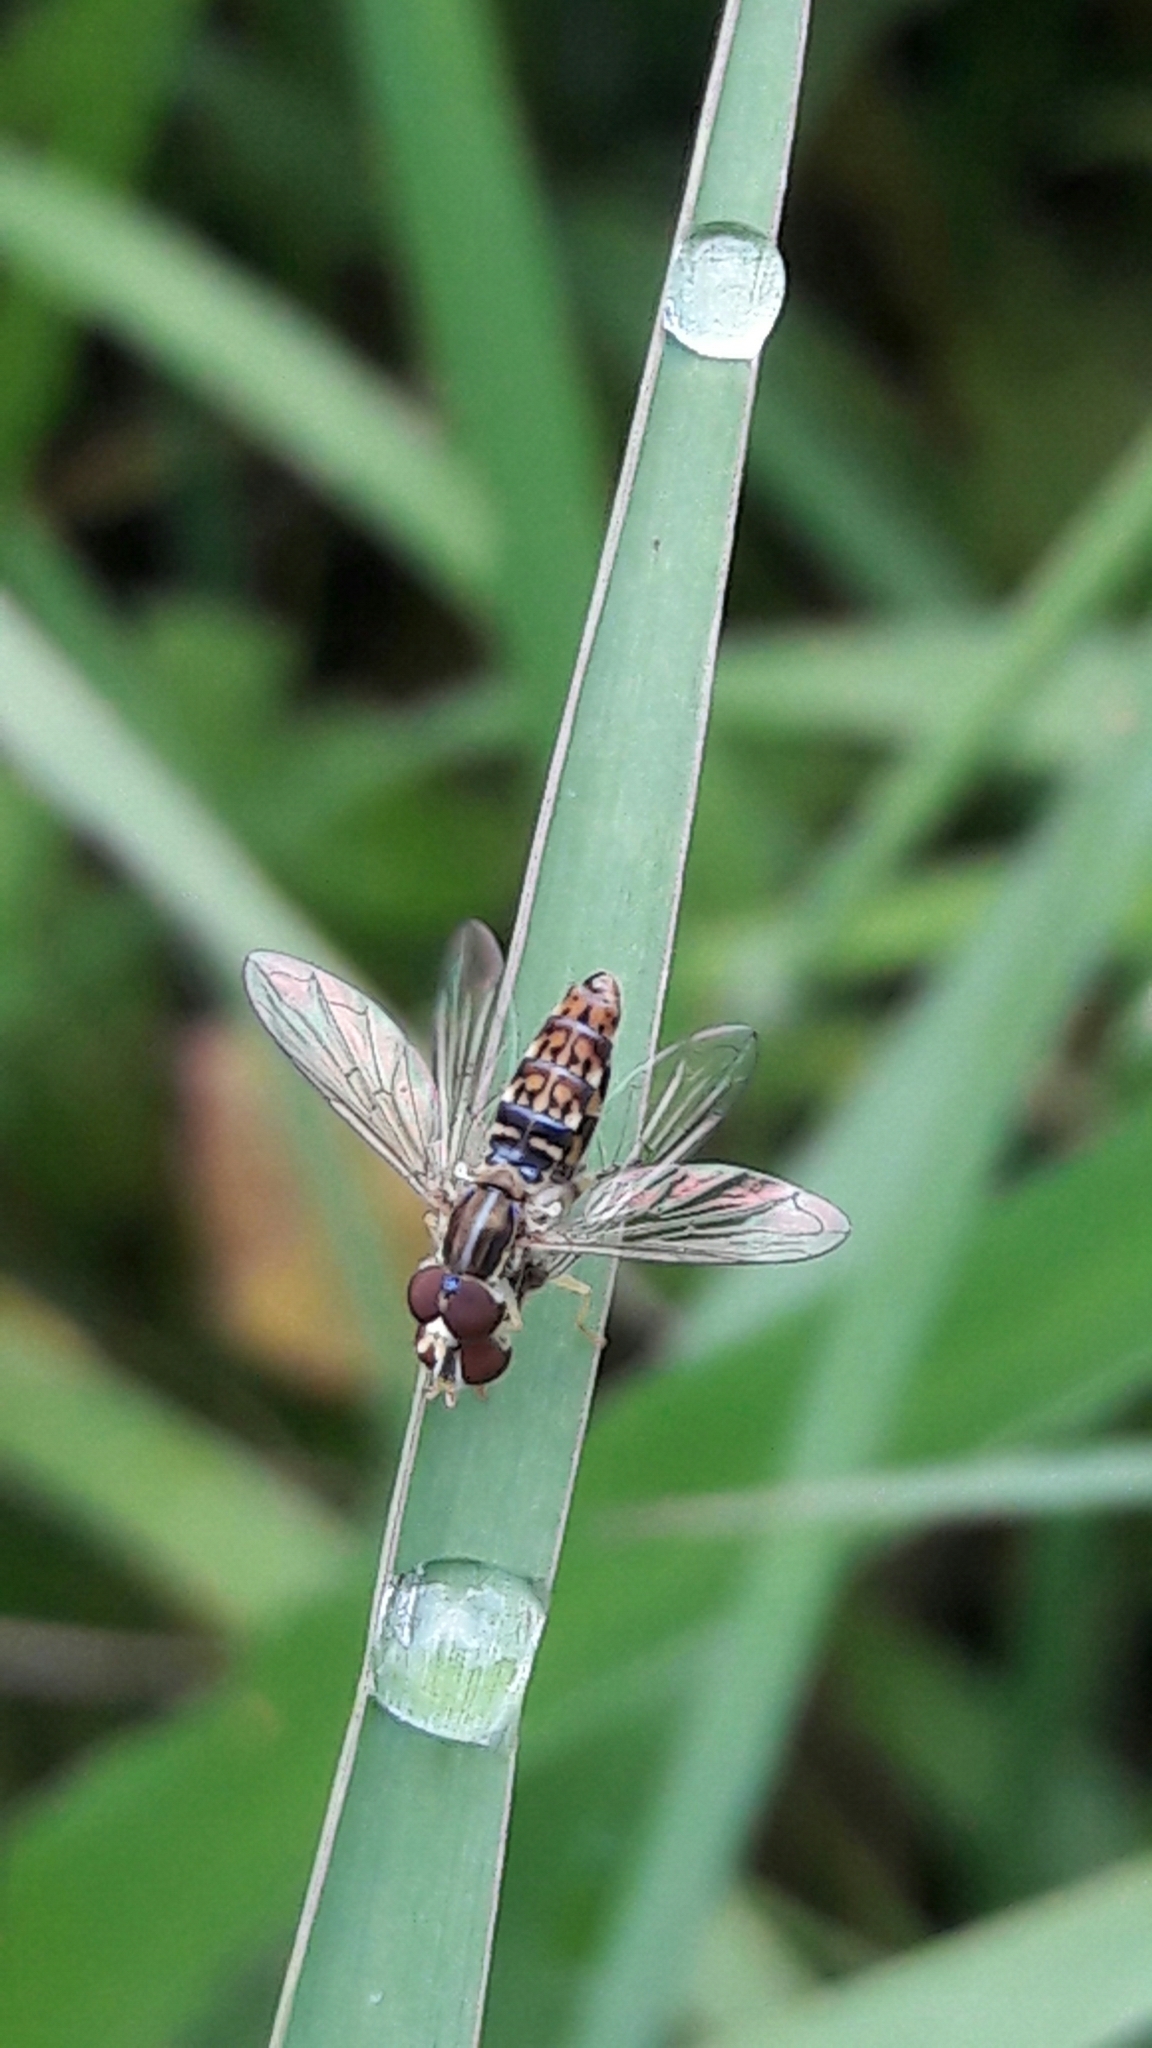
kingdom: Animalia
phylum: Arthropoda
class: Insecta
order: Diptera
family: Syrphidae
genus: Toxomerus
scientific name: Toxomerus
